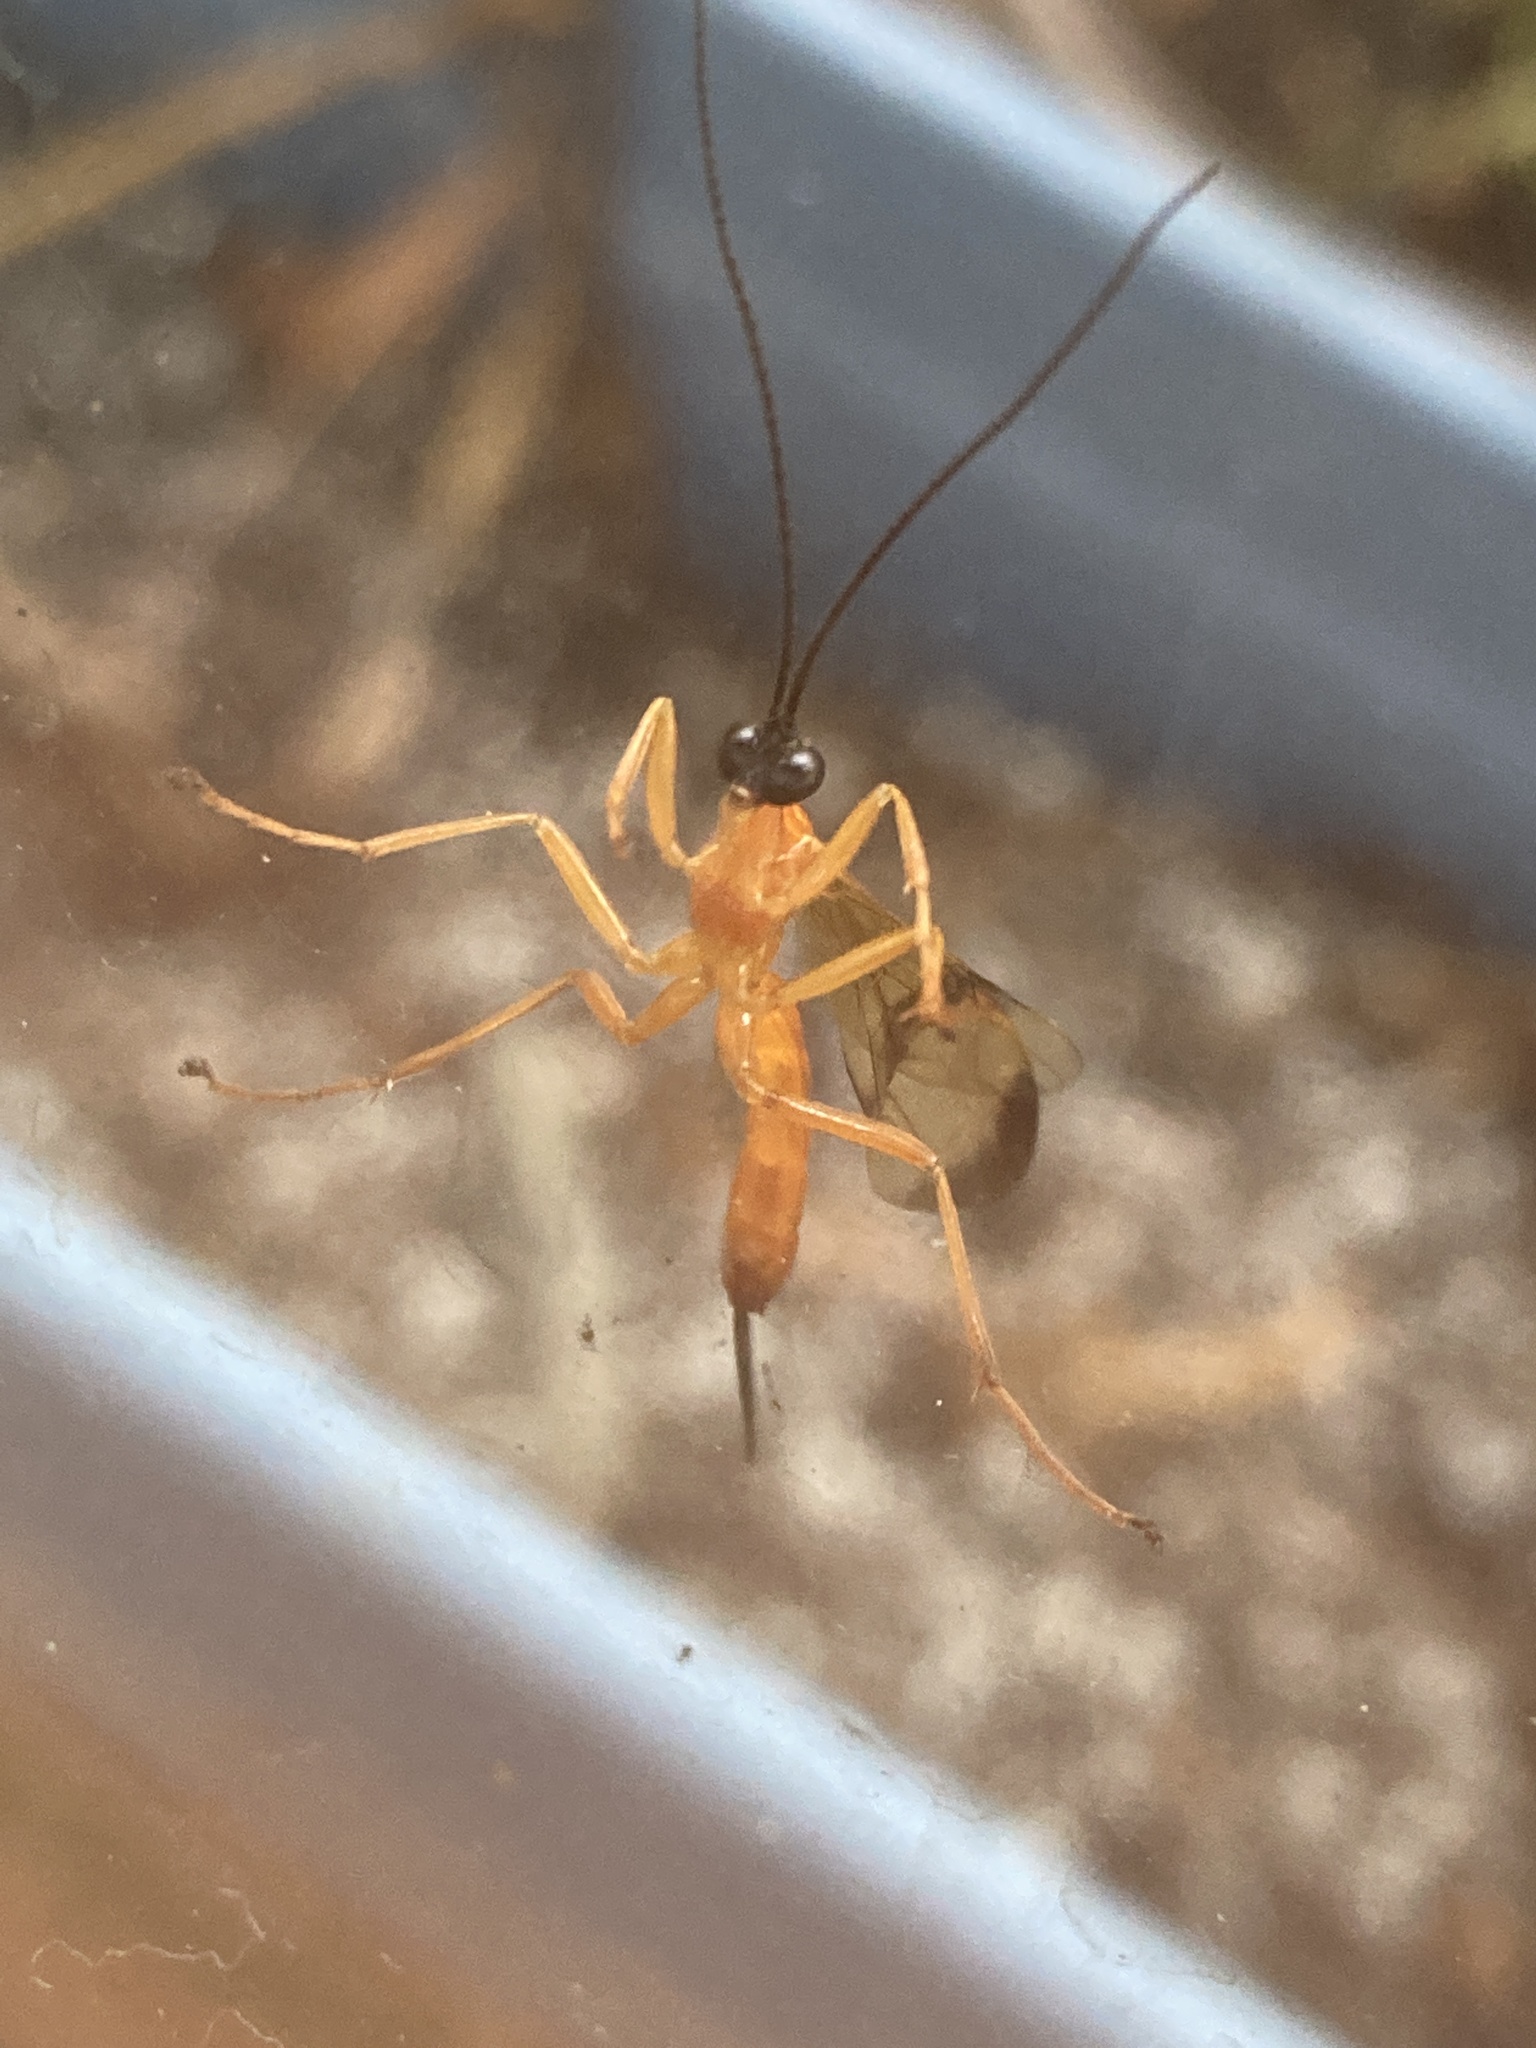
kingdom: Animalia
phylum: Arthropoda
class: Insecta
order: Hymenoptera
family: Ichneumonidae
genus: Acrotaphus
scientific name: Acrotaphus wiltii
